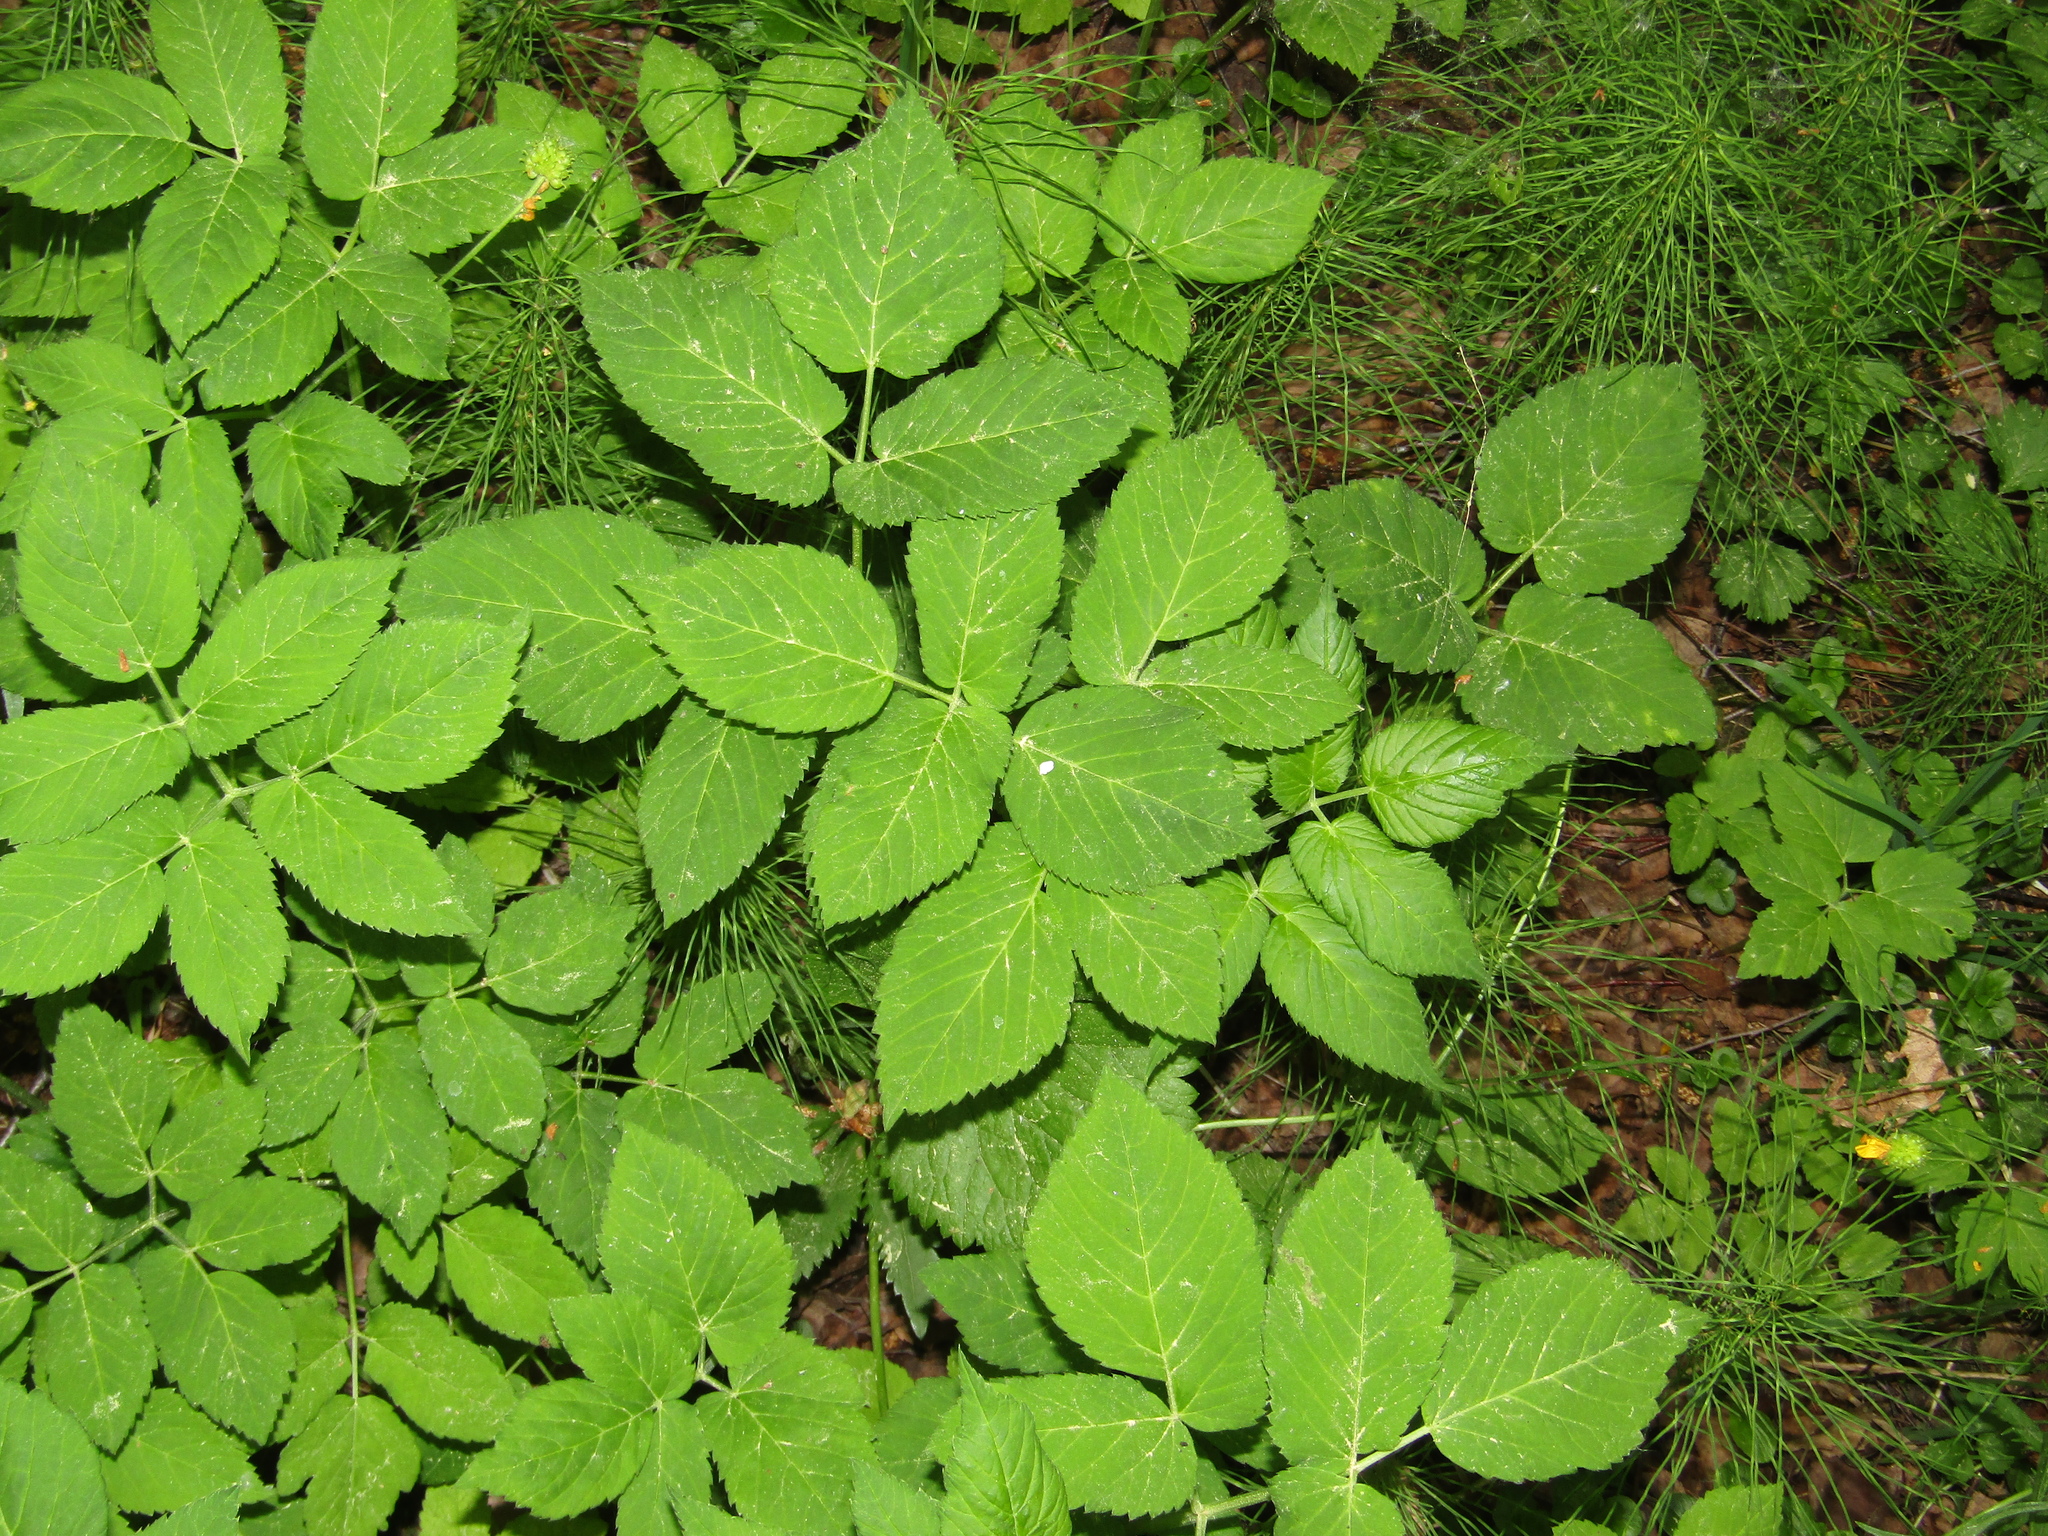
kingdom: Plantae
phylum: Tracheophyta
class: Magnoliopsida
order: Apiales
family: Apiaceae
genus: Aegopodium
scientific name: Aegopodium podagraria
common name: Ground-elder
